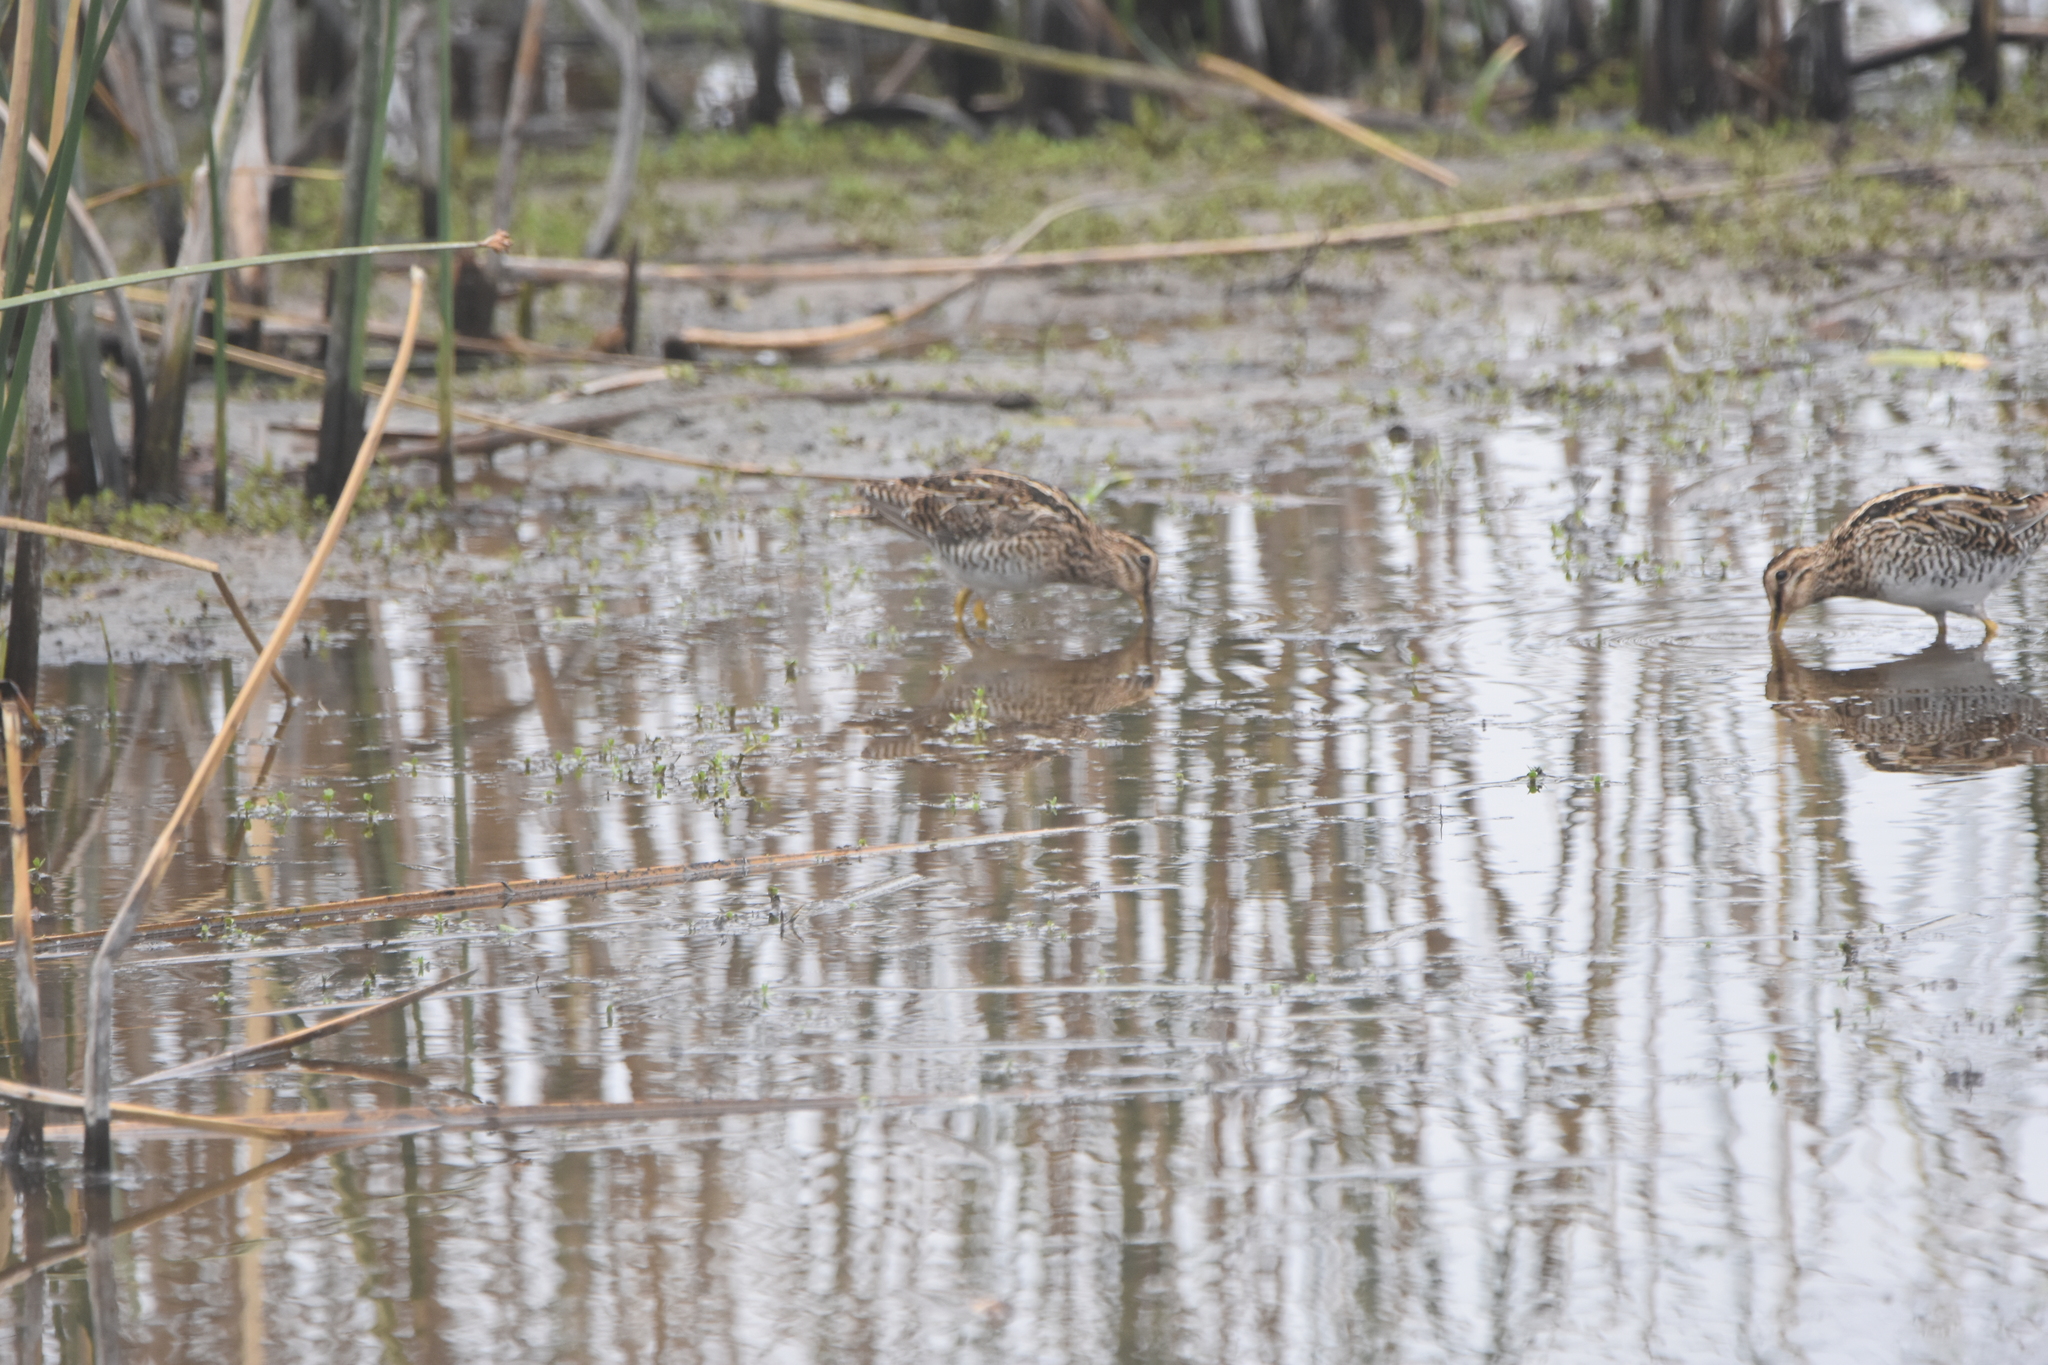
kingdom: Animalia
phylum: Chordata
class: Aves
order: Charadriiformes
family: Scolopacidae
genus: Gallinago
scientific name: Gallinago magellanica
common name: Magellanic snipe
